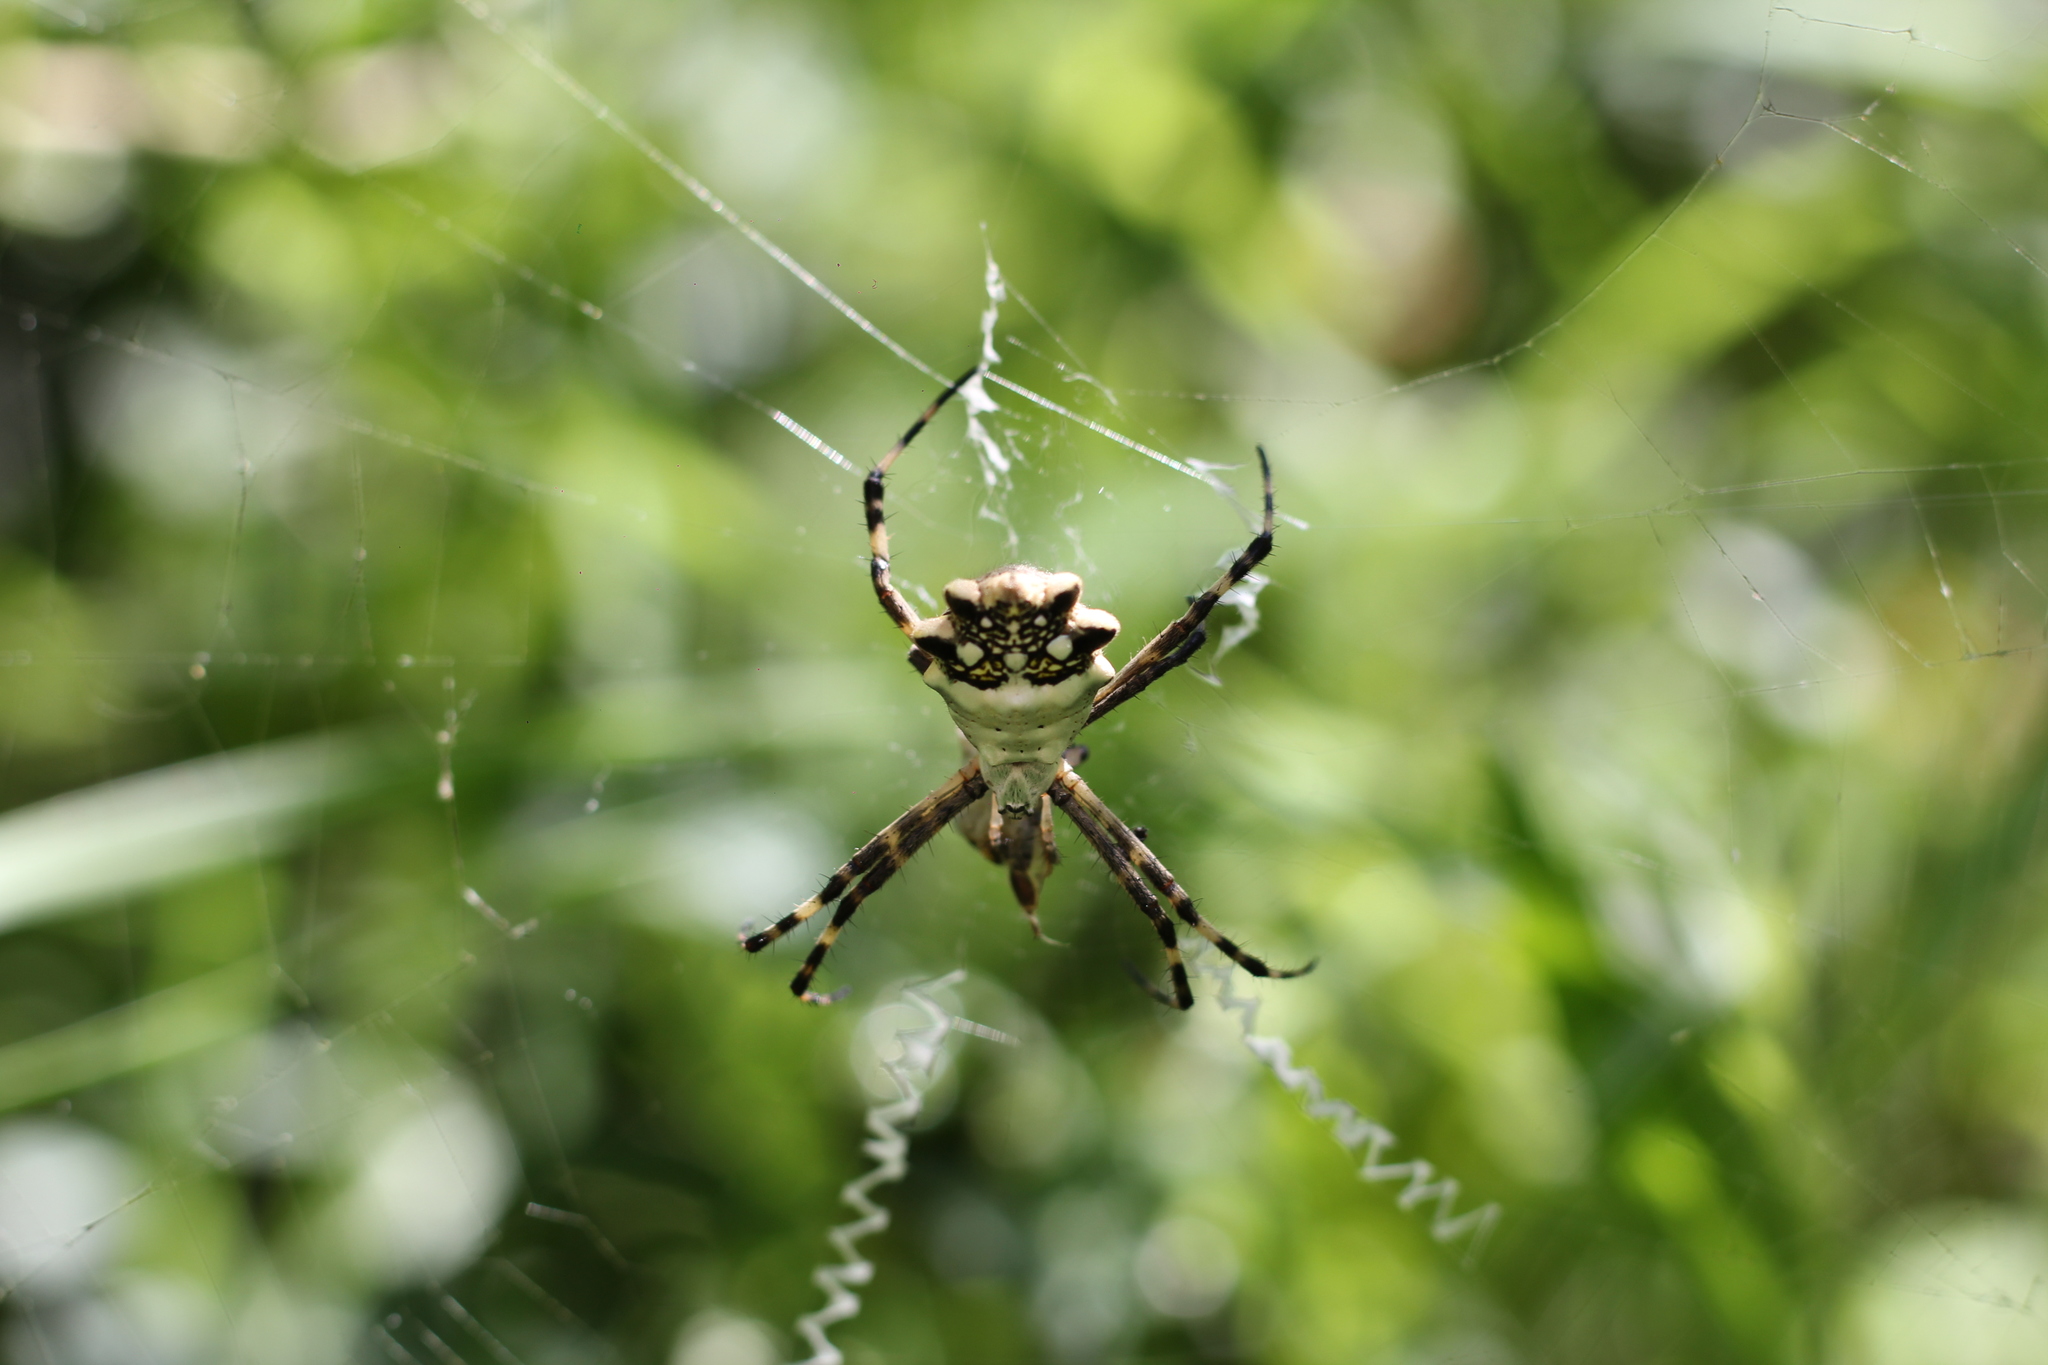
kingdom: Animalia
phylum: Arthropoda
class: Arachnida
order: Araneae
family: Araneidae
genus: Argiope
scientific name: Argiope argentata
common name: Orb weavers
